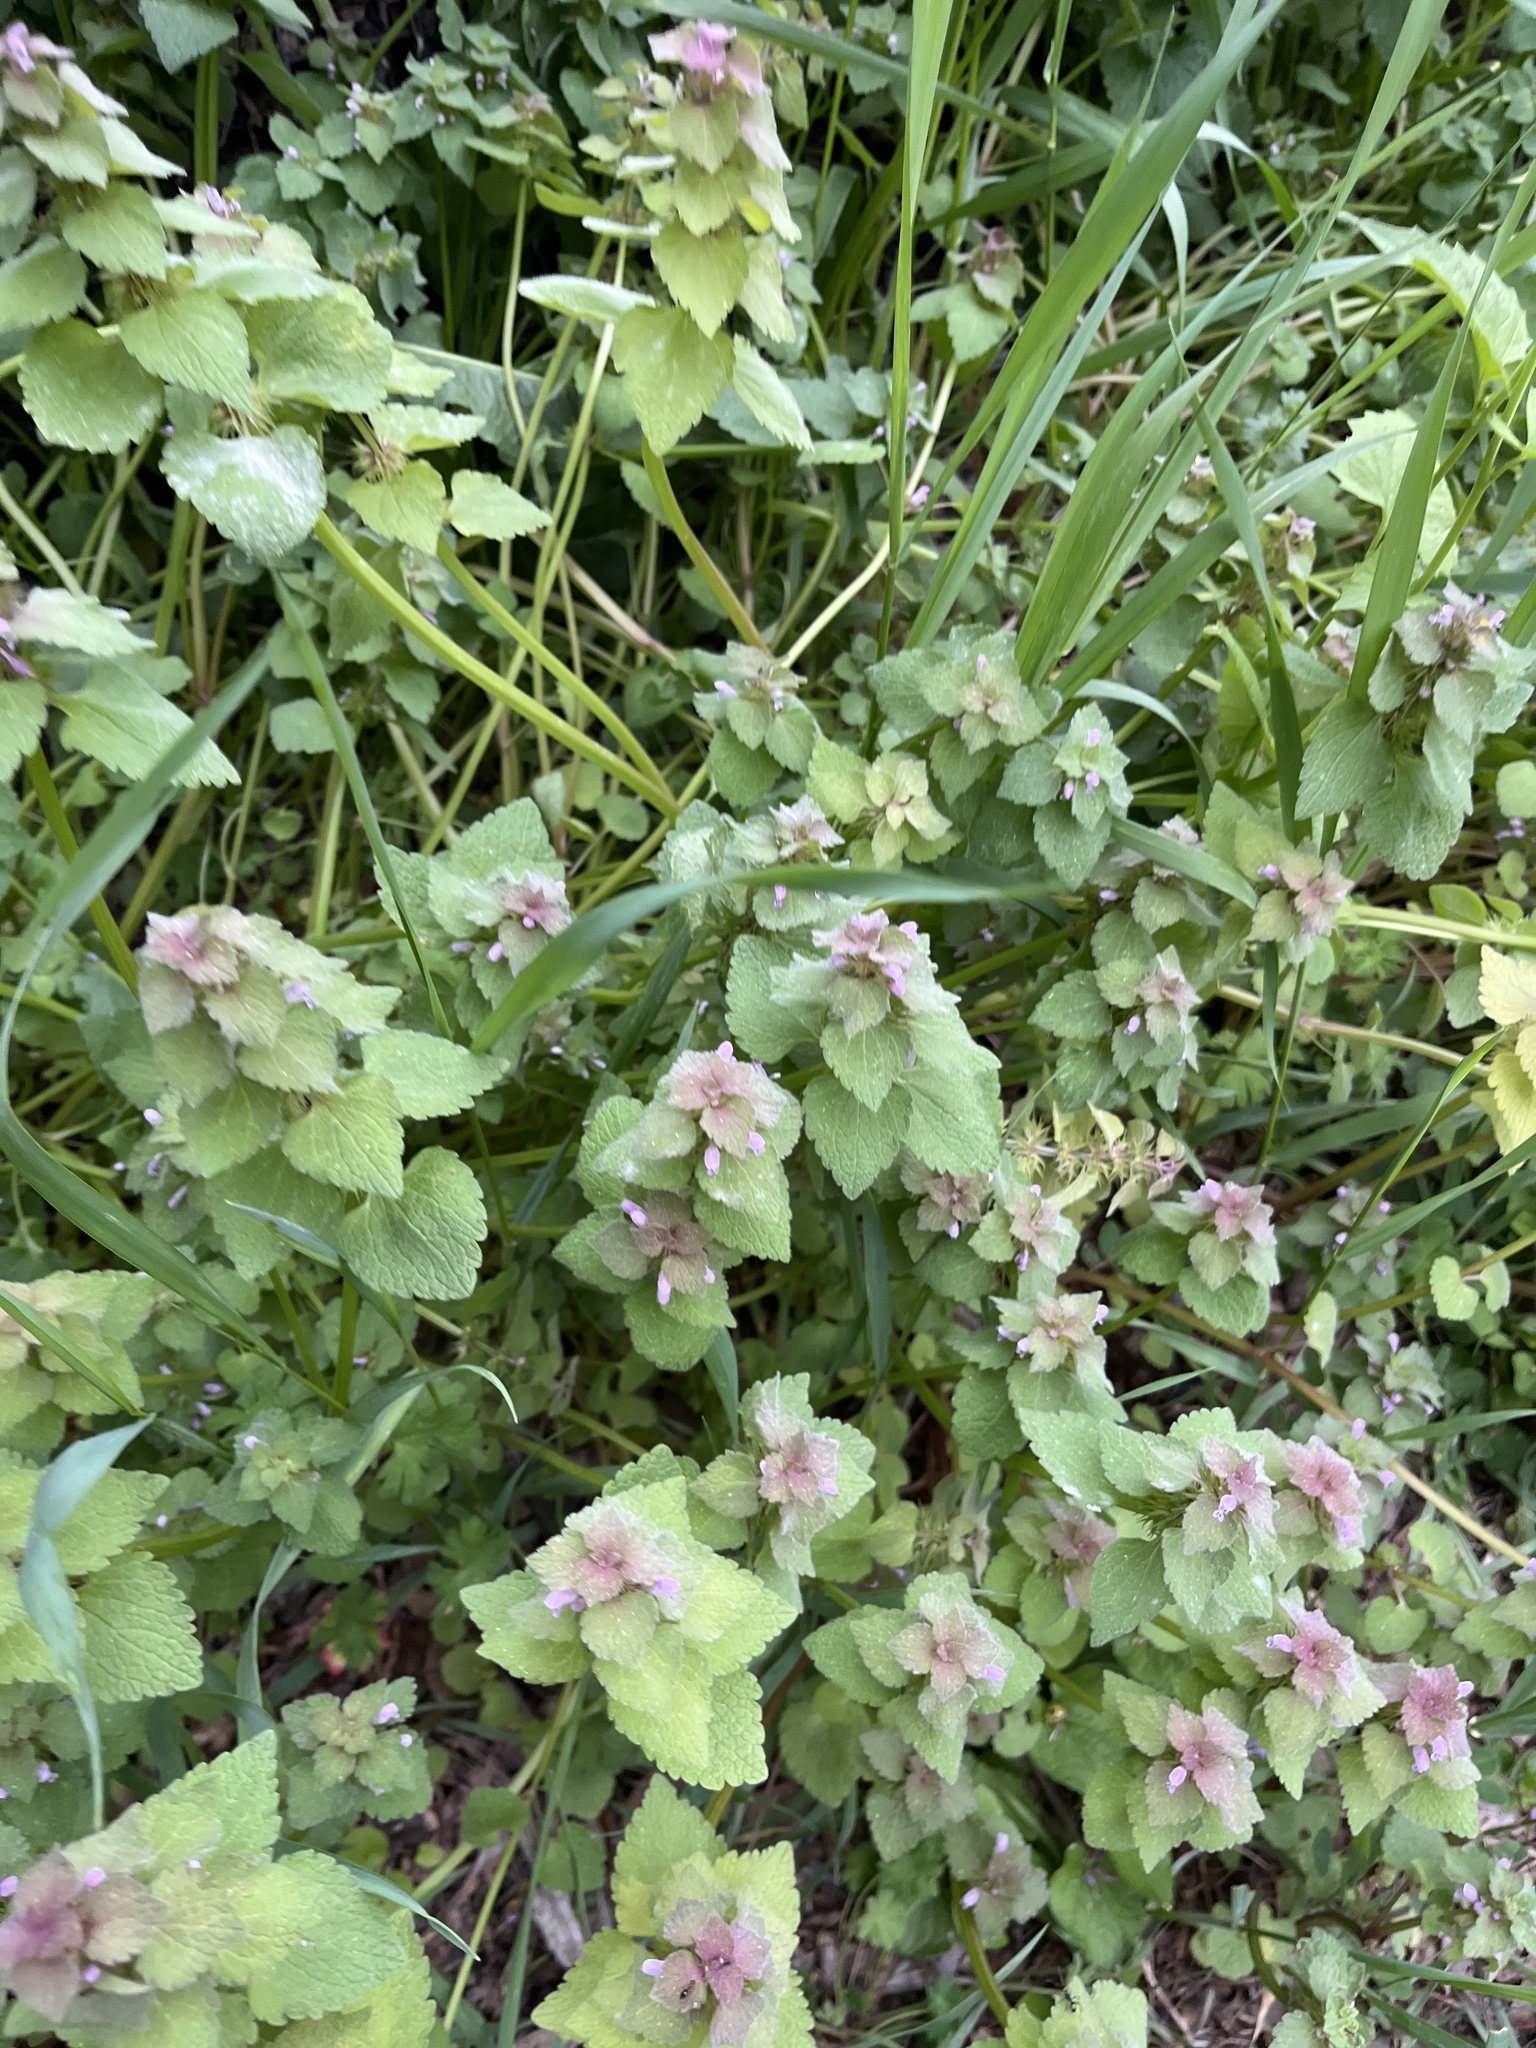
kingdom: Plantae
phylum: Tracheophyta
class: Magnoliopsida
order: Lamiales
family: Lamiaceae
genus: Lamium
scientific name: Lamium purpureum
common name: Red dead-nettle
